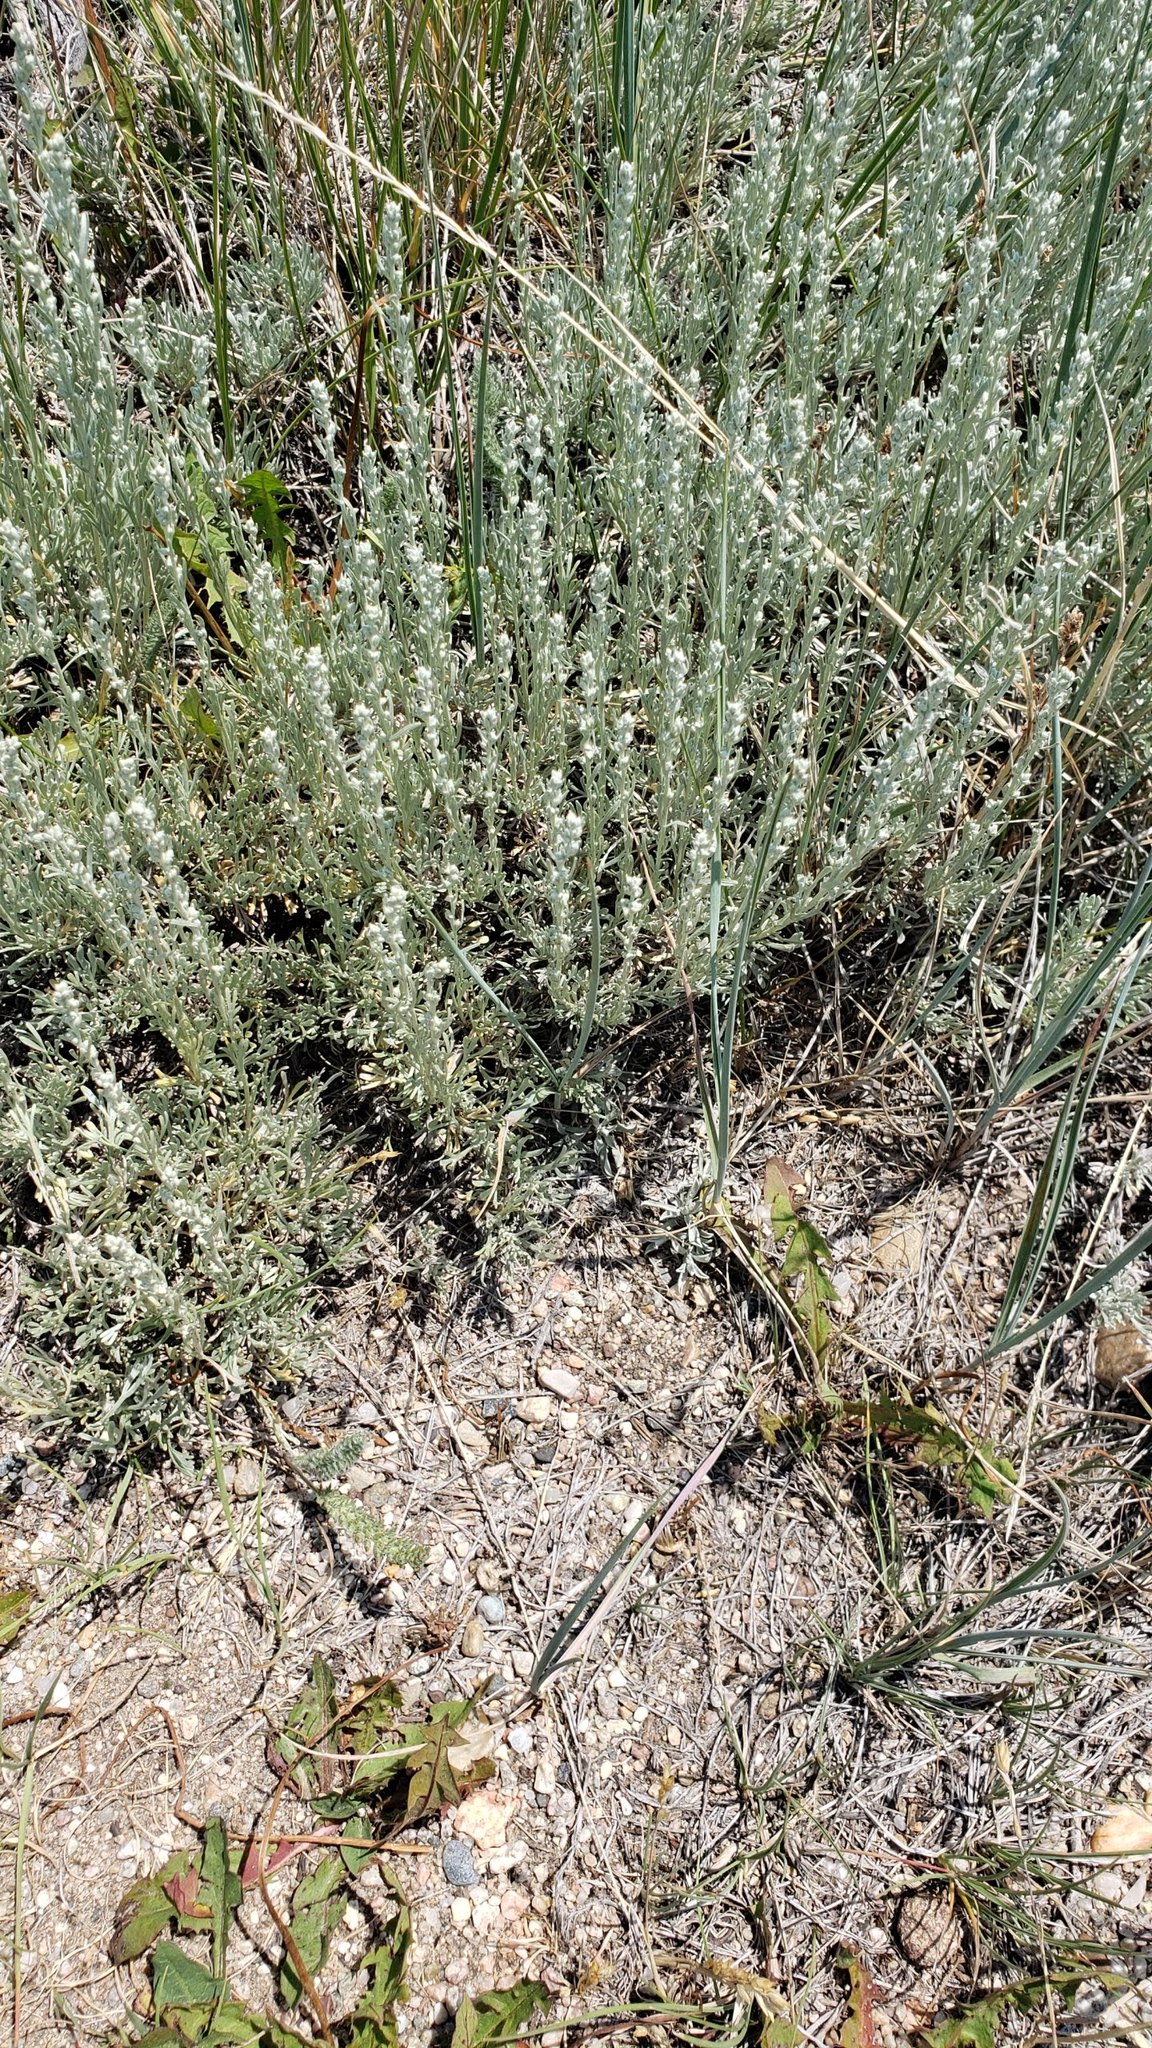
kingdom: Plantae
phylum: Tracheophyta
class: Magnoliopsida
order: Asterales
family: Asteraceae
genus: Artemisia
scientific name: Artemisia frigida
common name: Prairie sagewort
